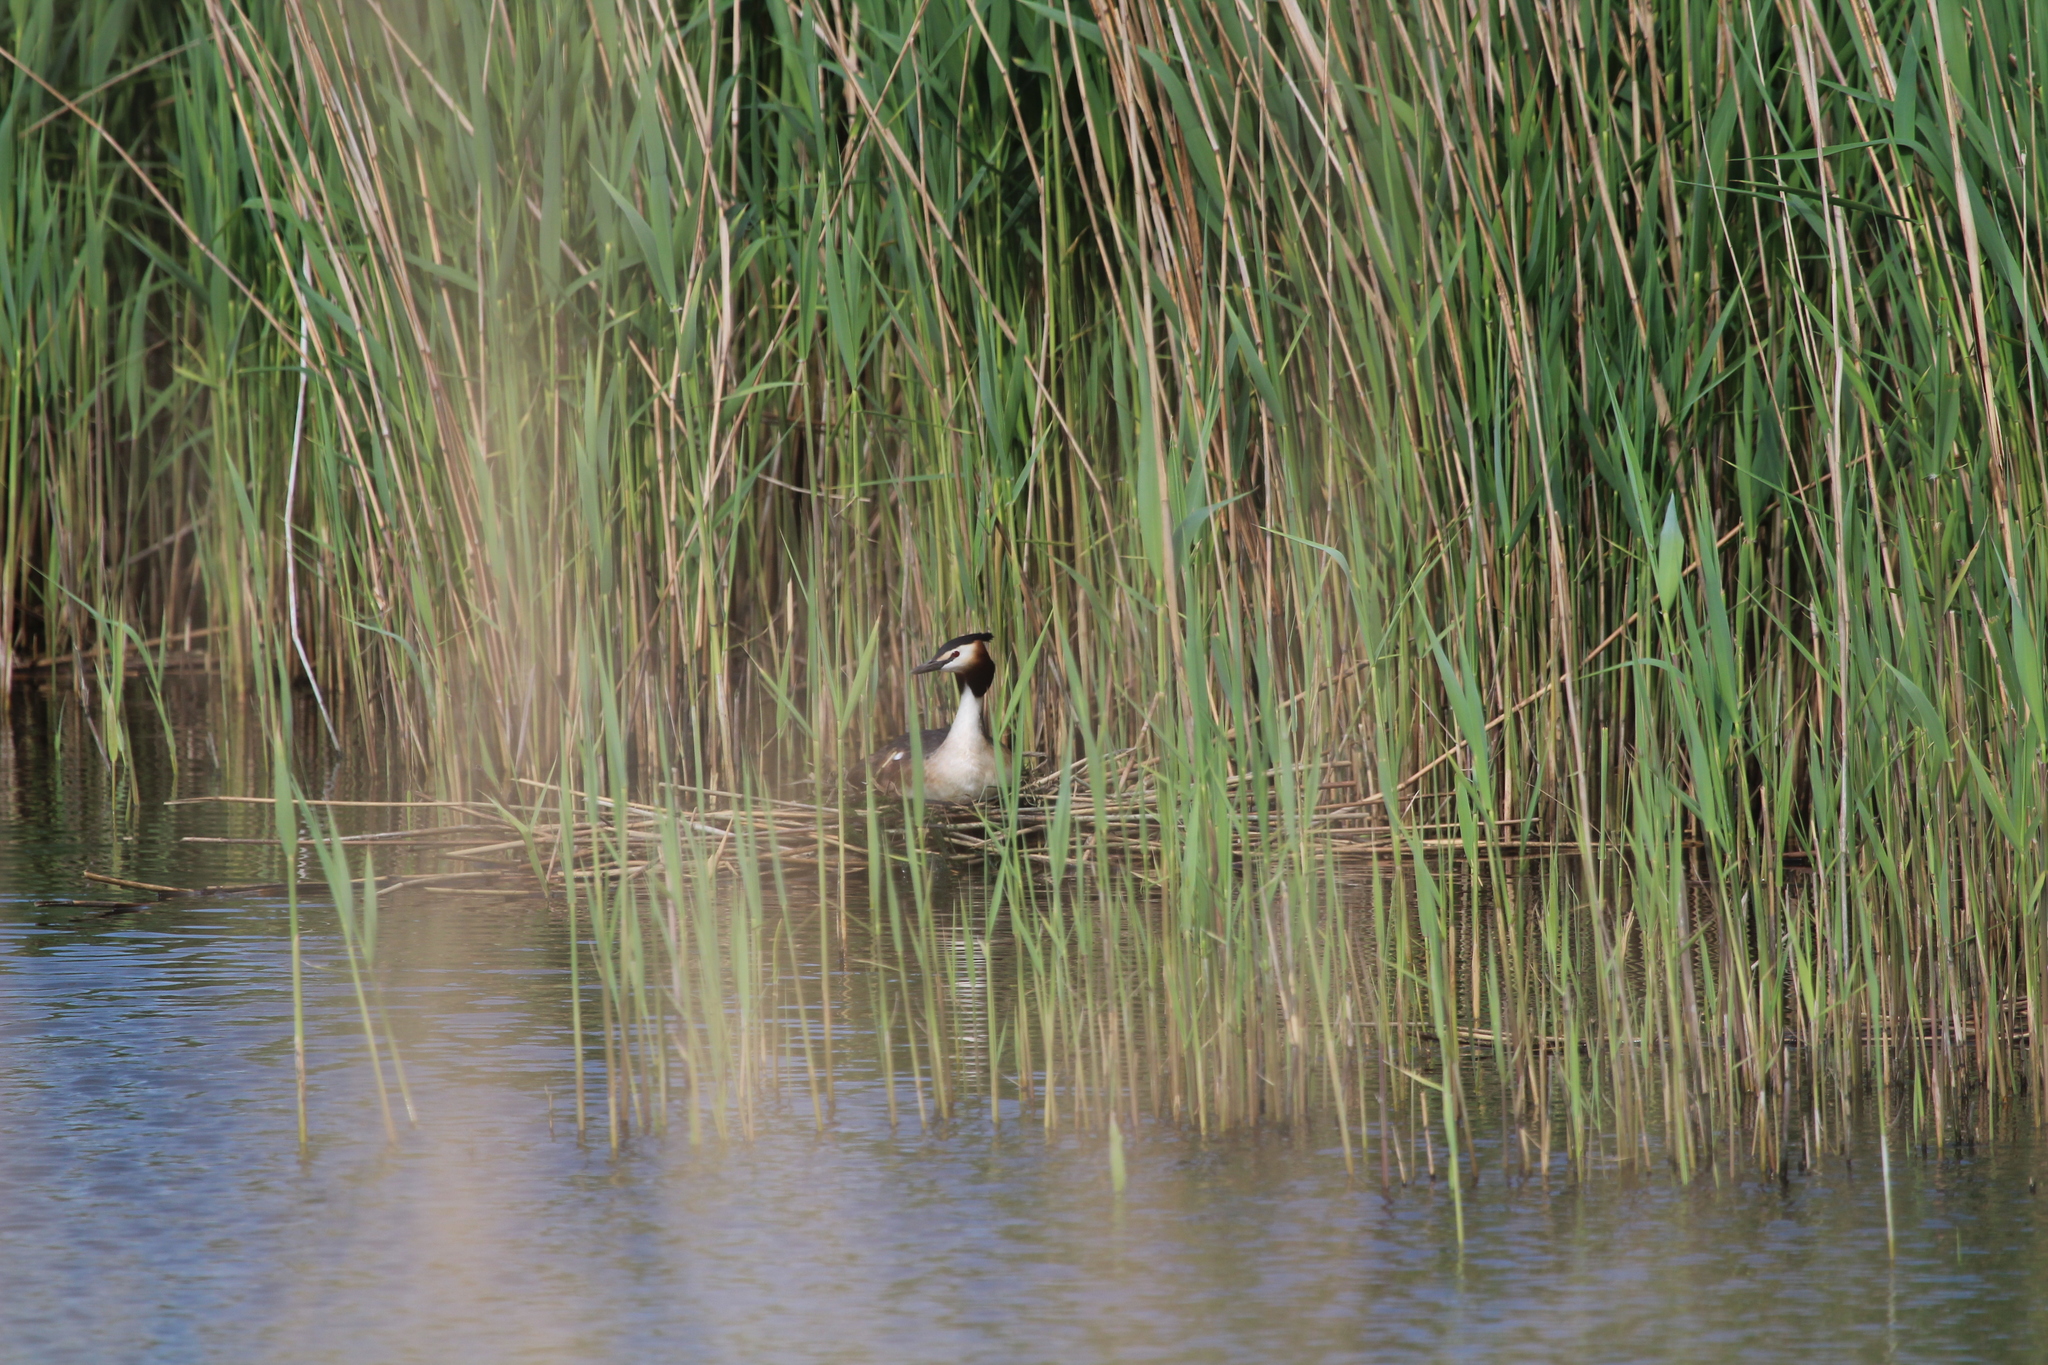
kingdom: Animalia
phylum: Chordata
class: Aves
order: Podicipediformes
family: Podicipedidae
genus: Podiceps
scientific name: Podiceps cristatus
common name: Great crested grebe
